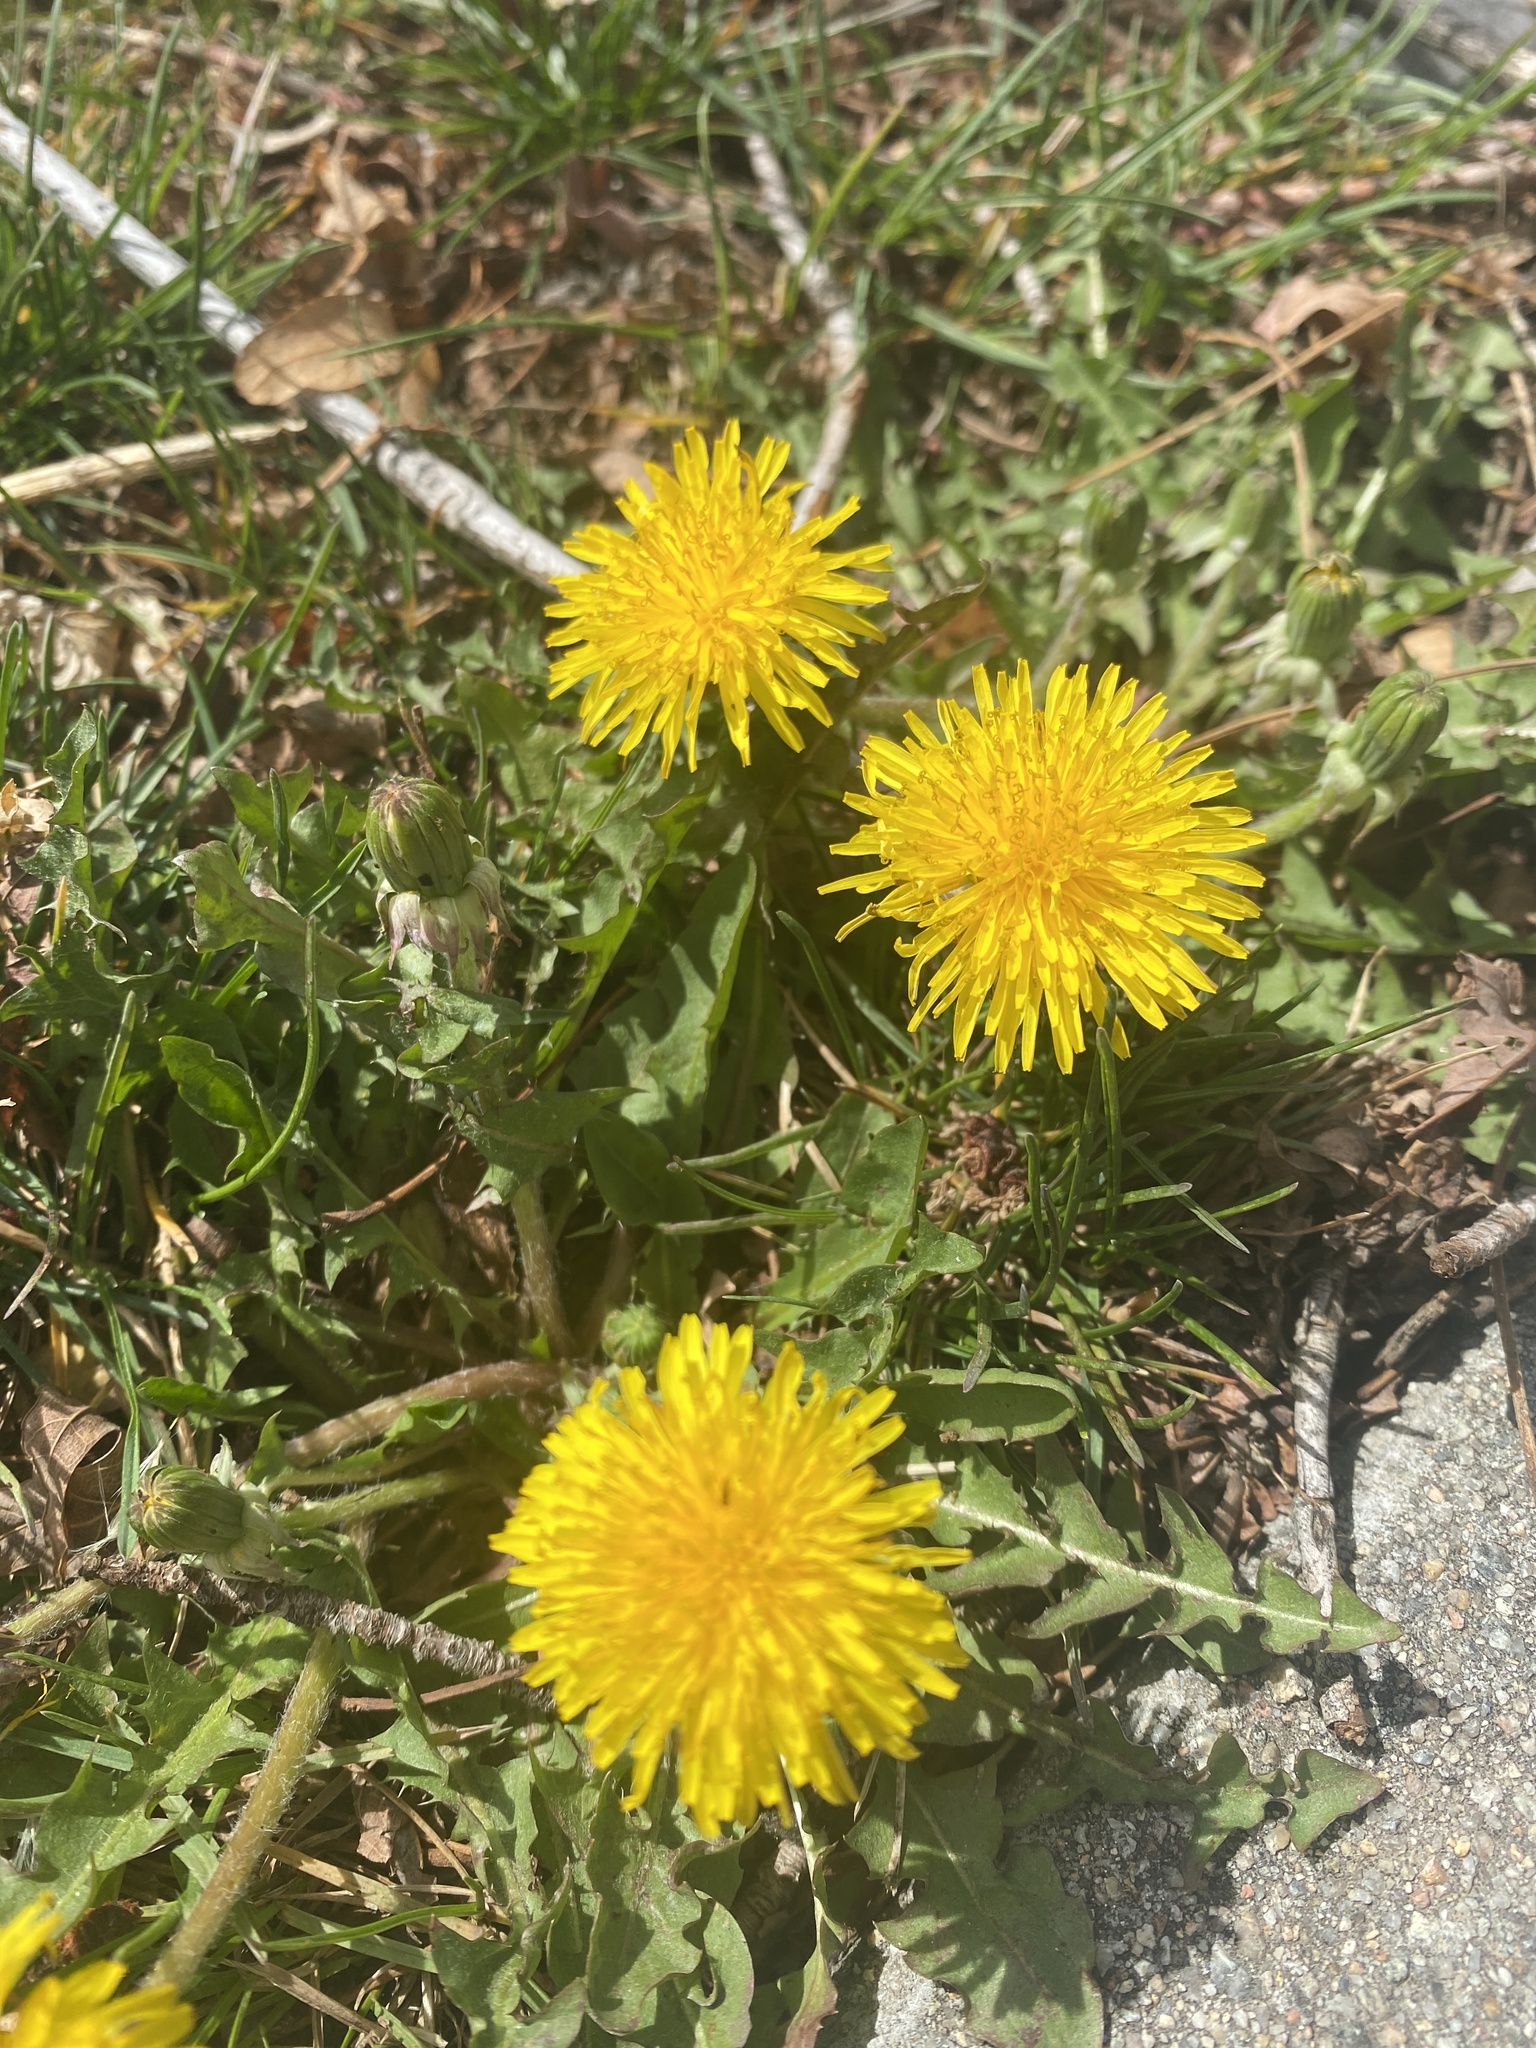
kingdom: Plantae
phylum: Tracheophyta
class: Magnoliopsida
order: Asterales
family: Asteraceae
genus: Taraxacum
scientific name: Taraxacum officinale
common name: Common dandelion
